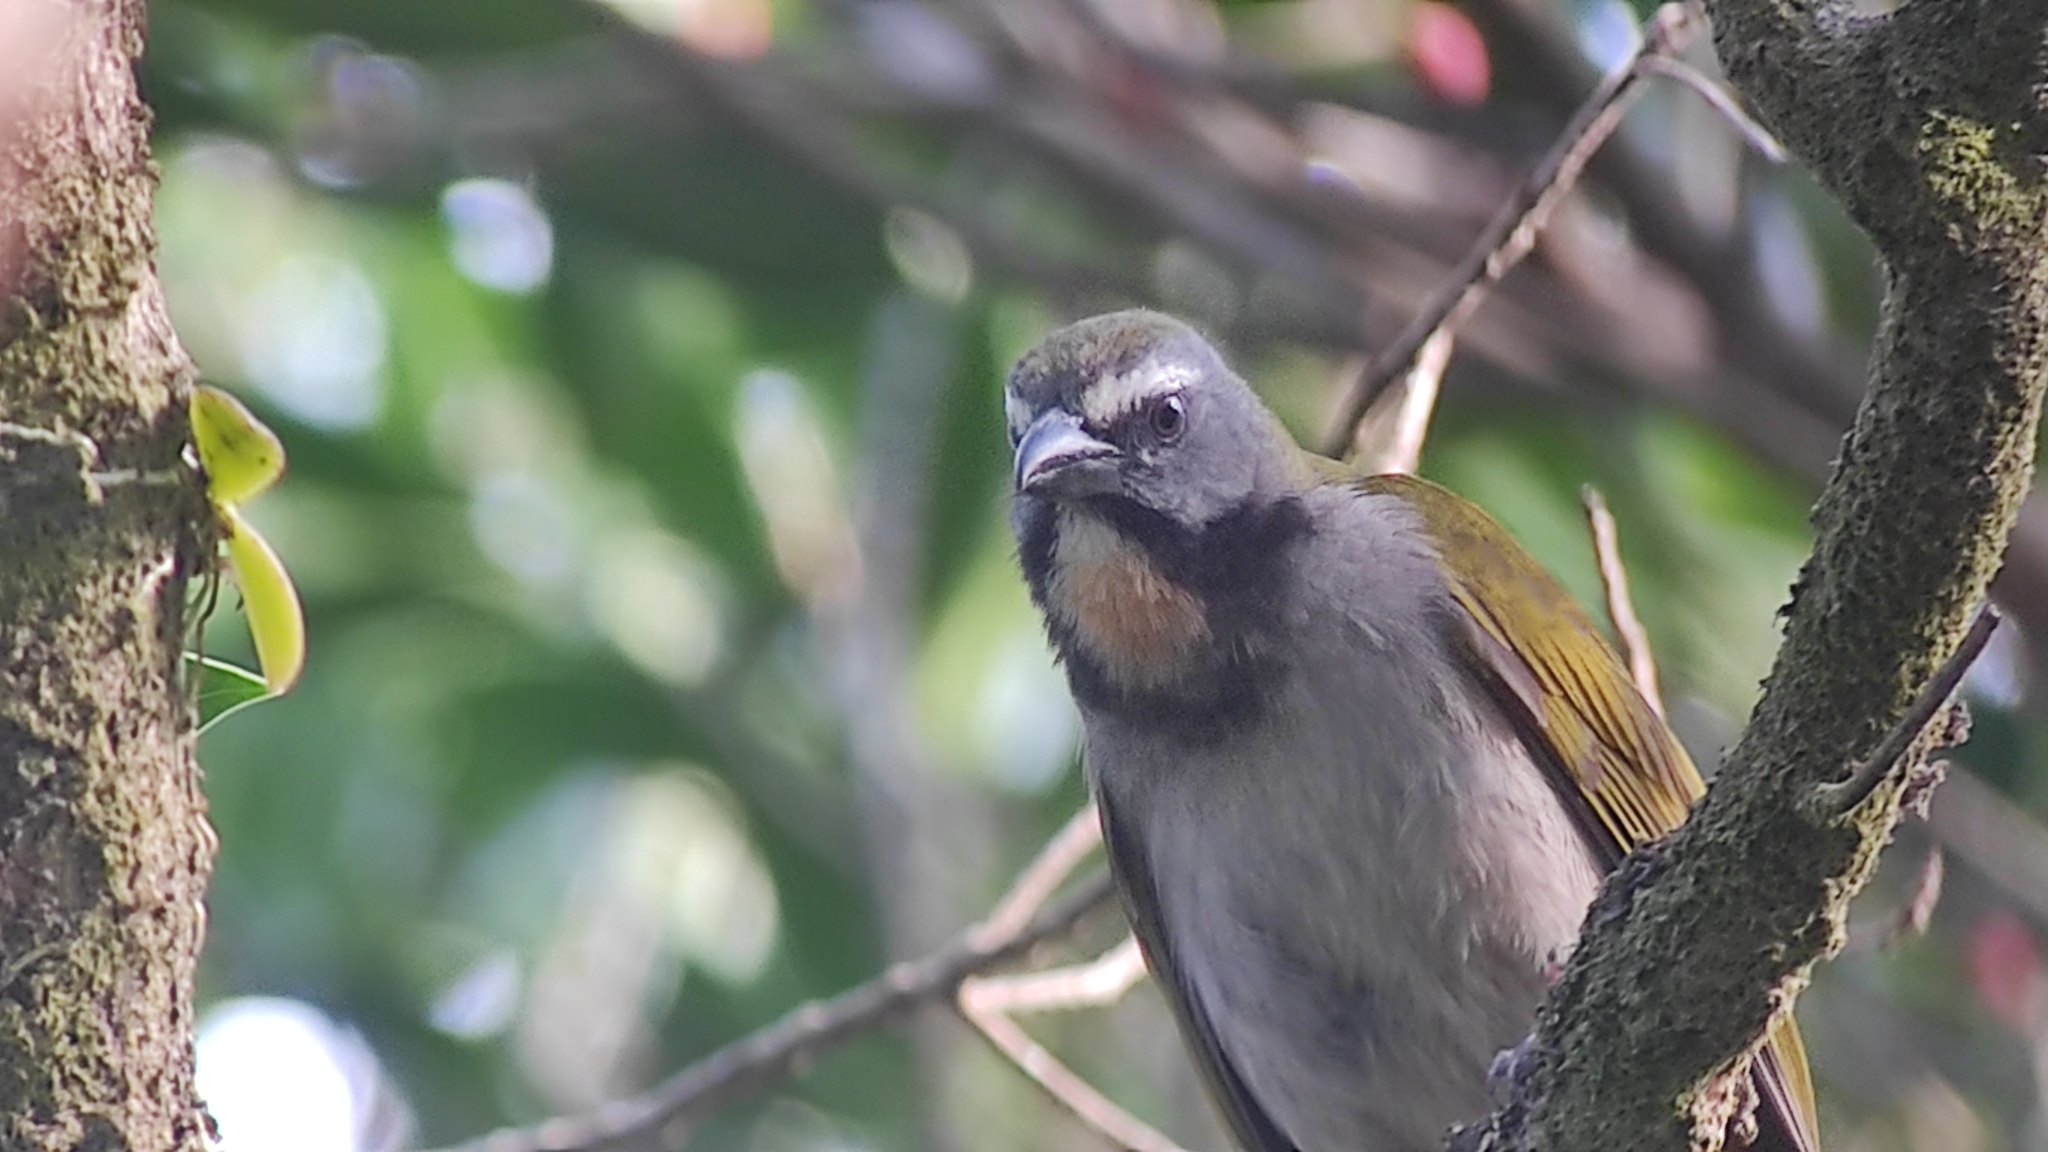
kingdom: Animalia
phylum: Chordata
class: Aves
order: Passeriformes
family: Thraupidae
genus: Saltator
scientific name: Saltator maximus
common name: Buff-throated saltator
